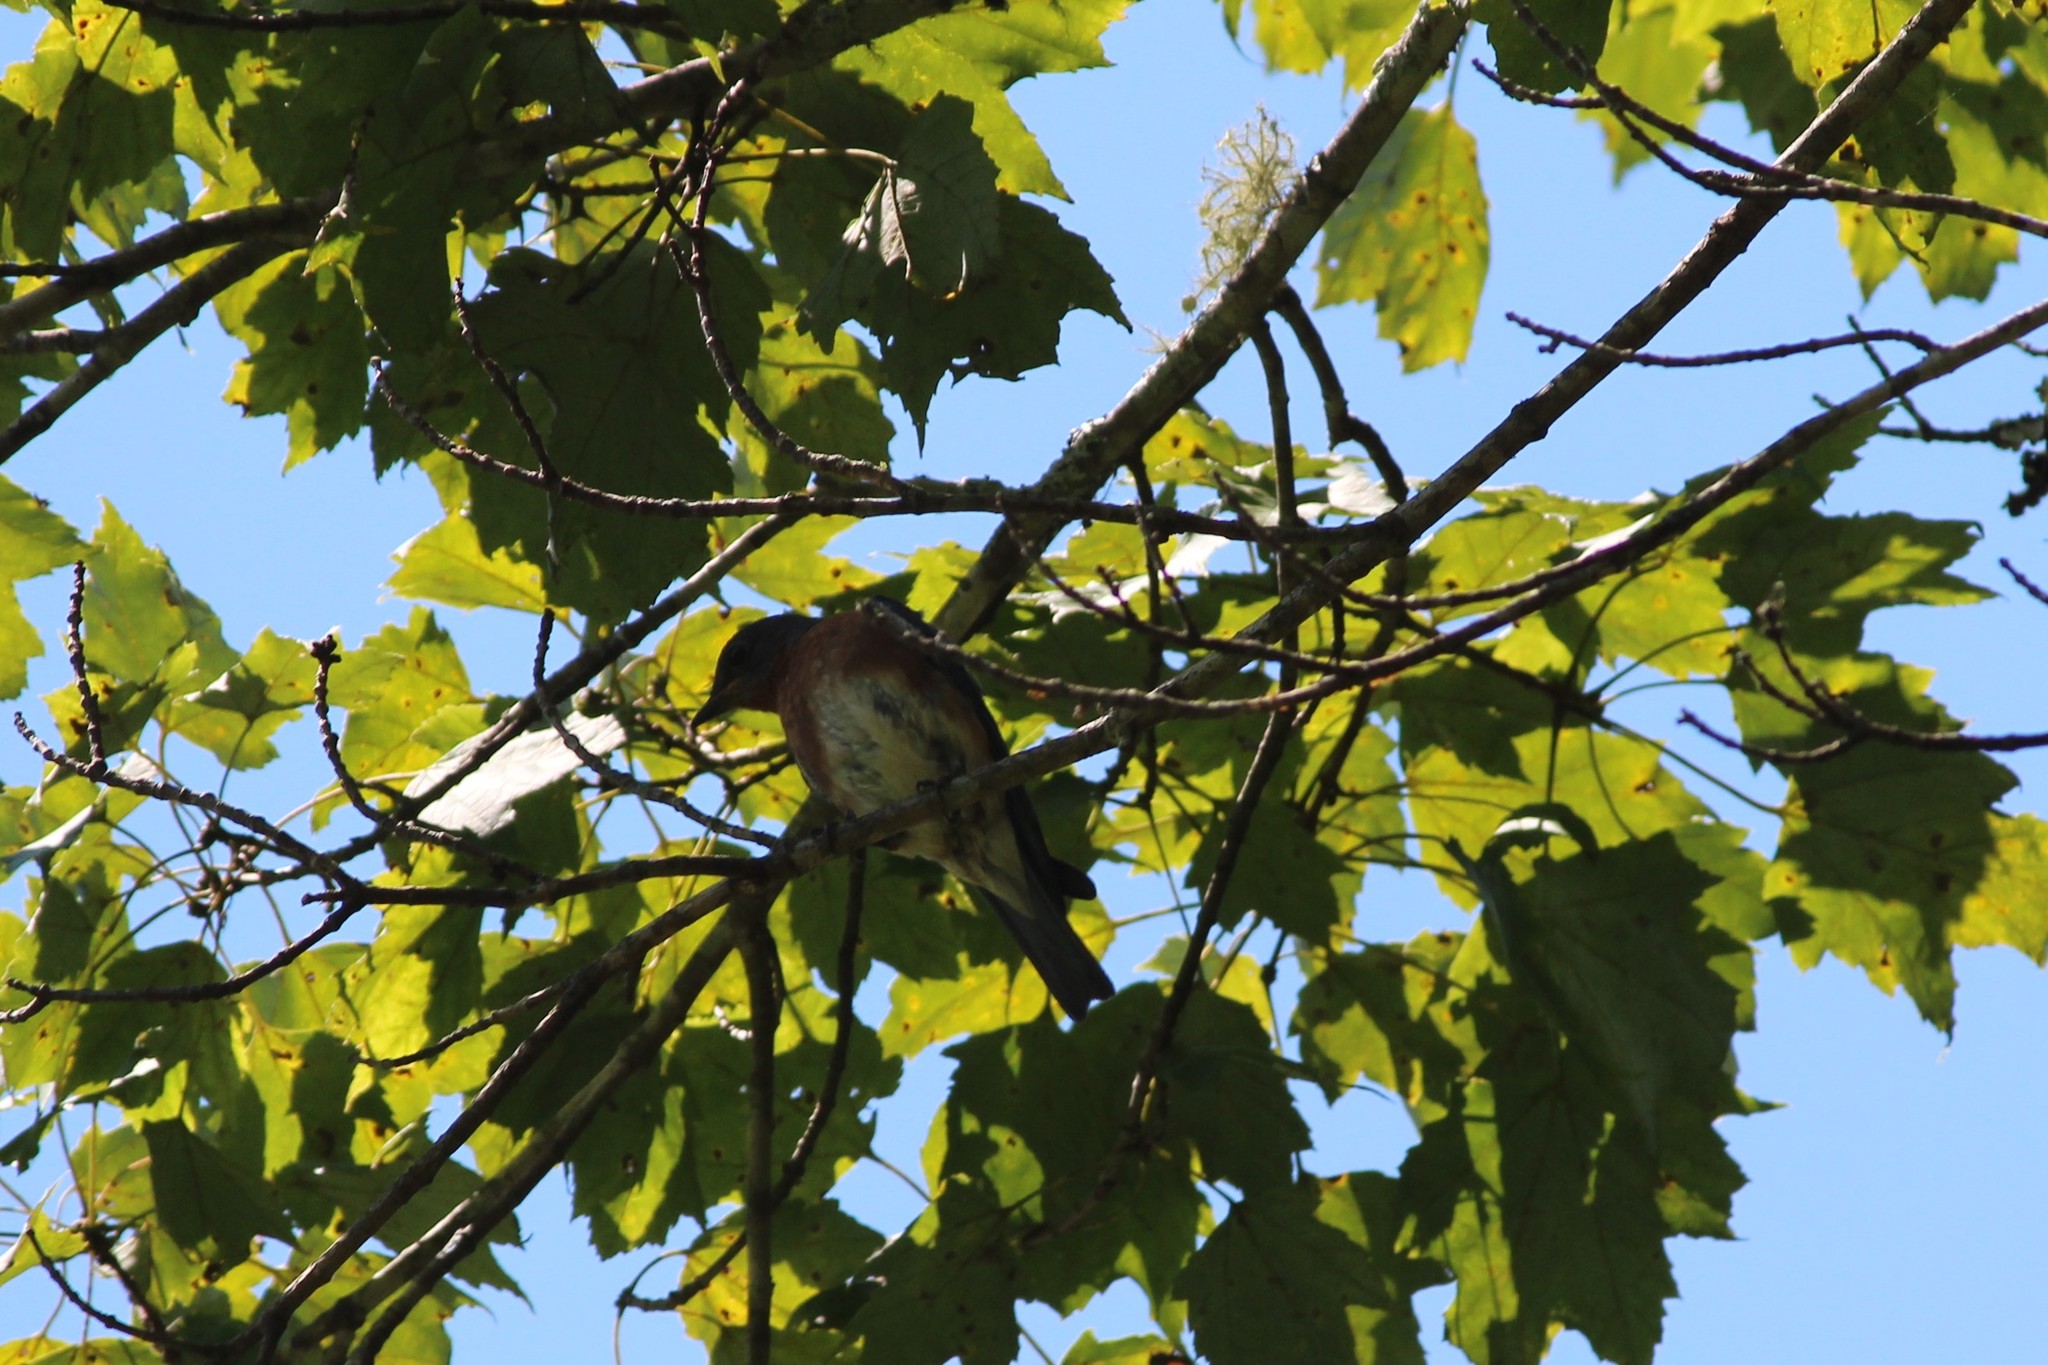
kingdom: Animalia
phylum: Chordata
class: Aves
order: Passeriformes
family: Turdidae
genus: Sialia
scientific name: Sialia sialis
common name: Eastern bluebird
